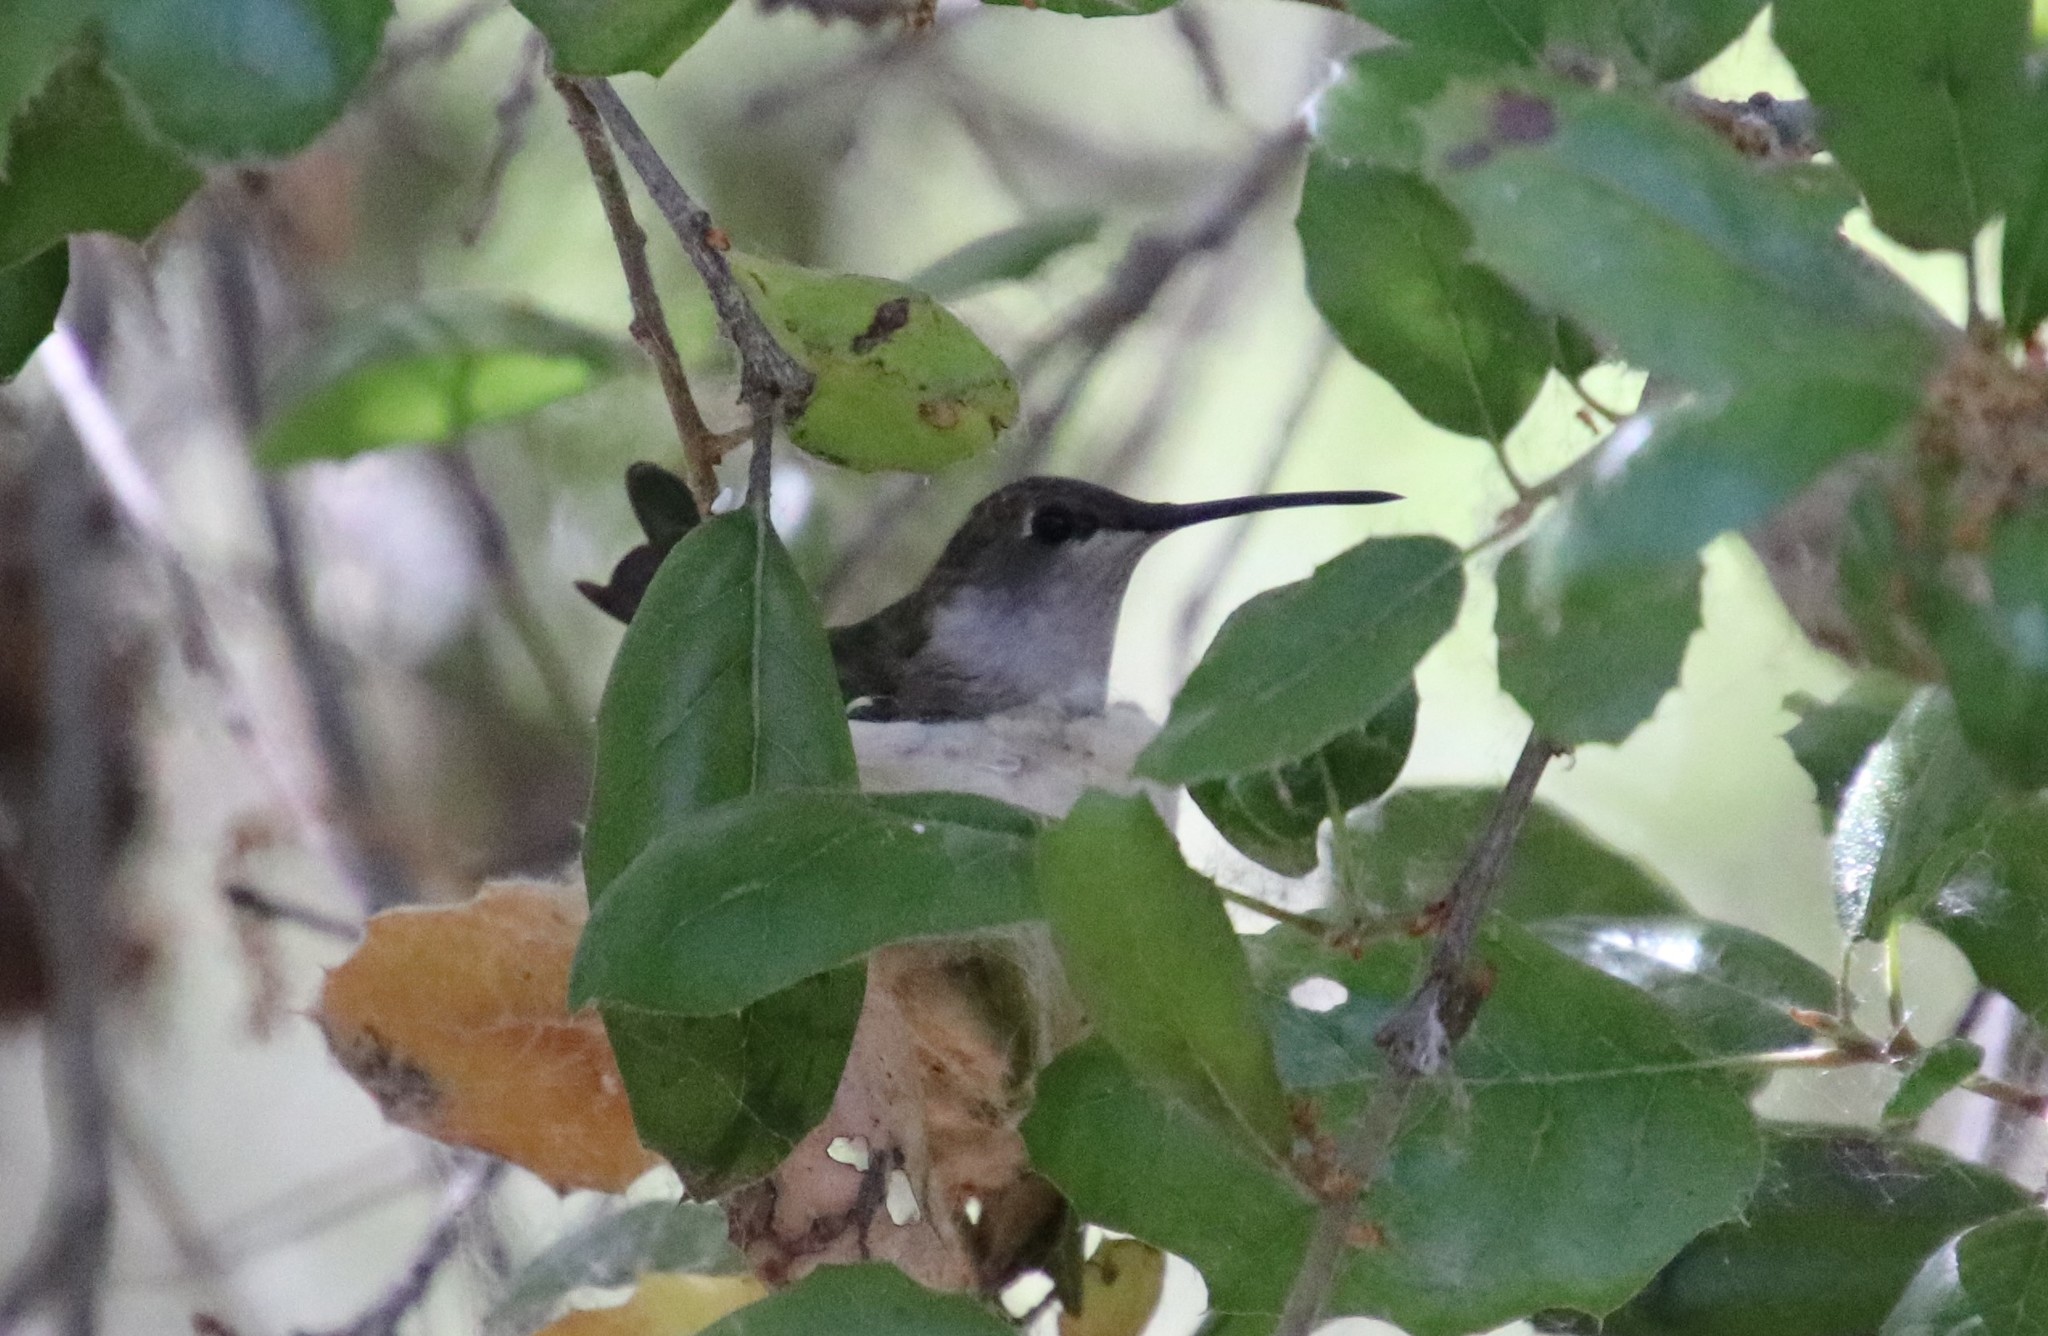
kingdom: Animalia
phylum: Chordata
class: Aves
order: Apodiformes
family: Trochilidae
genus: Archilochus
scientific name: Archilochus alexandri
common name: Black-chinned hummingbird
